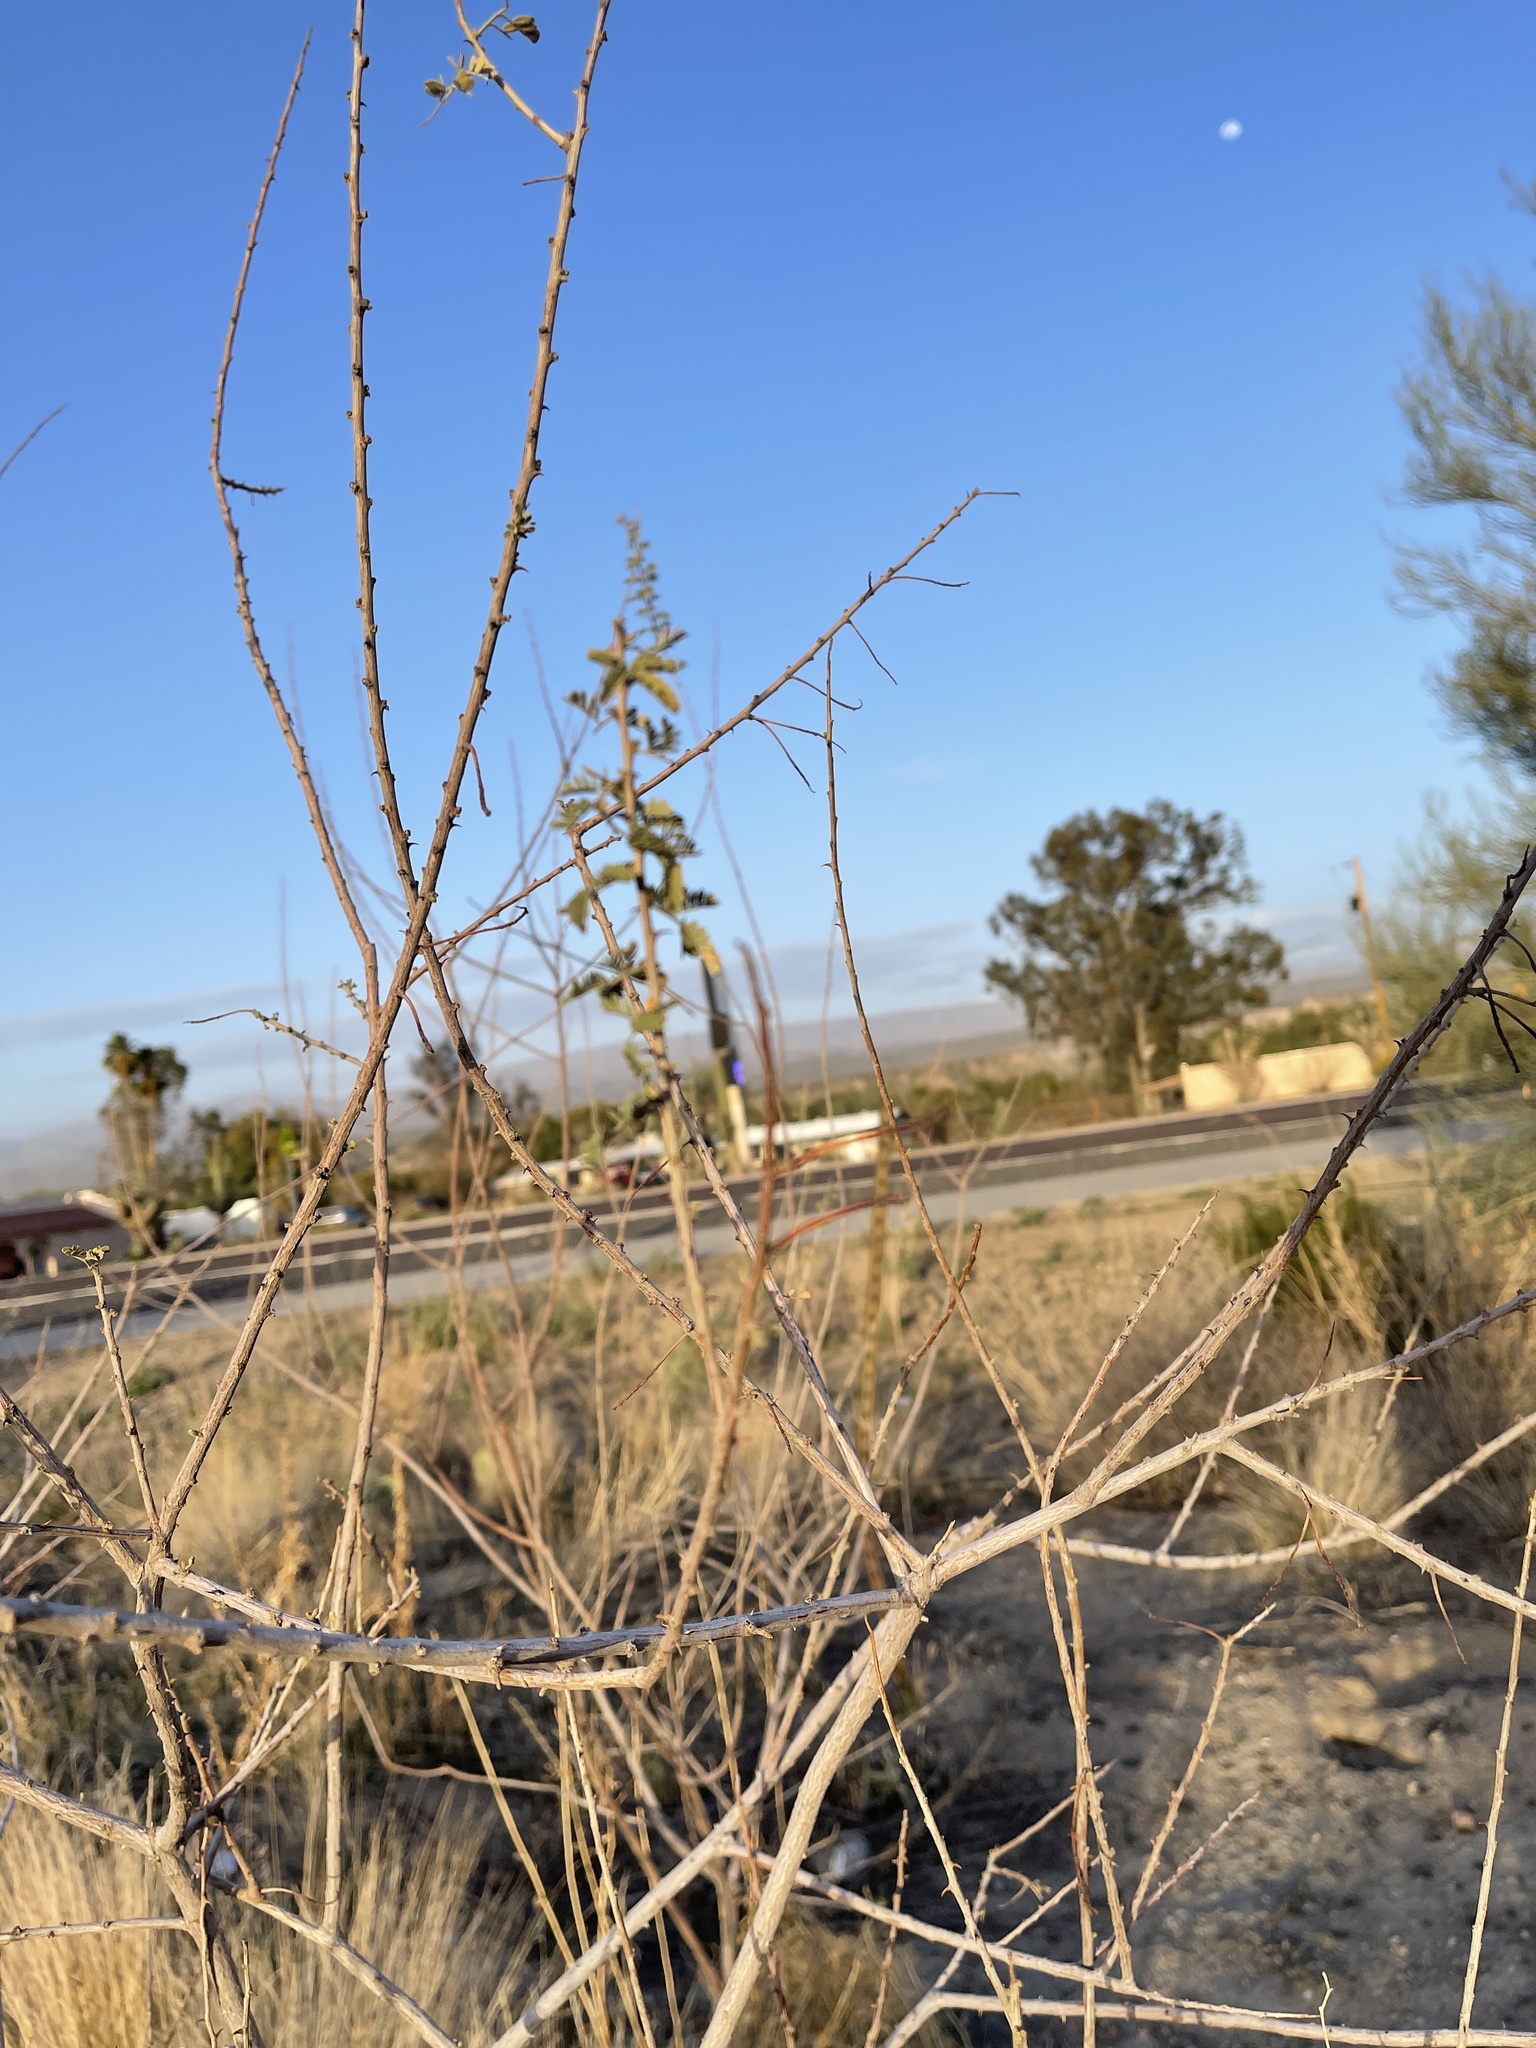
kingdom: Plantae
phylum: Tracheophyta
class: Magnoliopsida
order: Fabales
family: Fabaceae
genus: Senegalia
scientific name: Senegalia greggii
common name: Texas-mimosa
